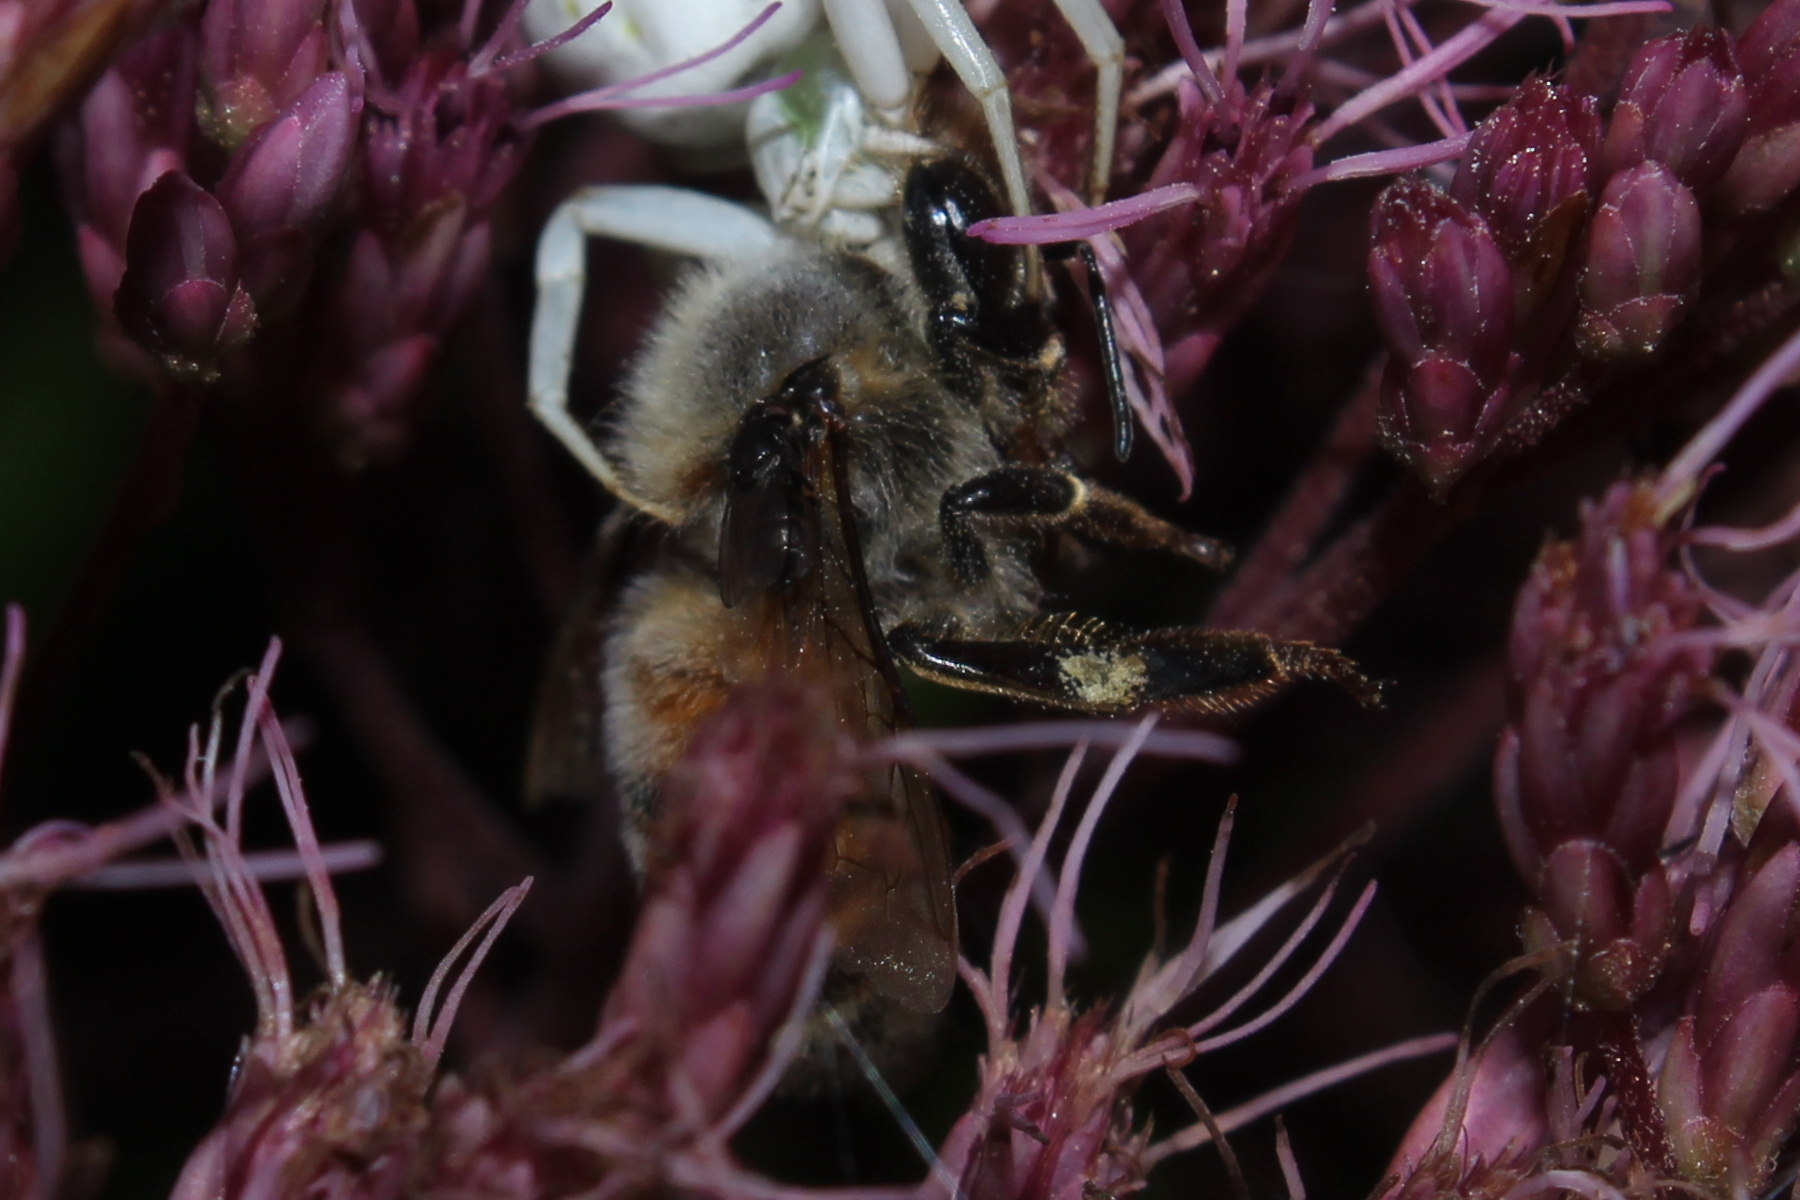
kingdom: Animalia
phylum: Arthropoda
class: Insecta
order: Hymenoptera
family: Apidae
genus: Apis
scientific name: Apis mellifera
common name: Honey bee
